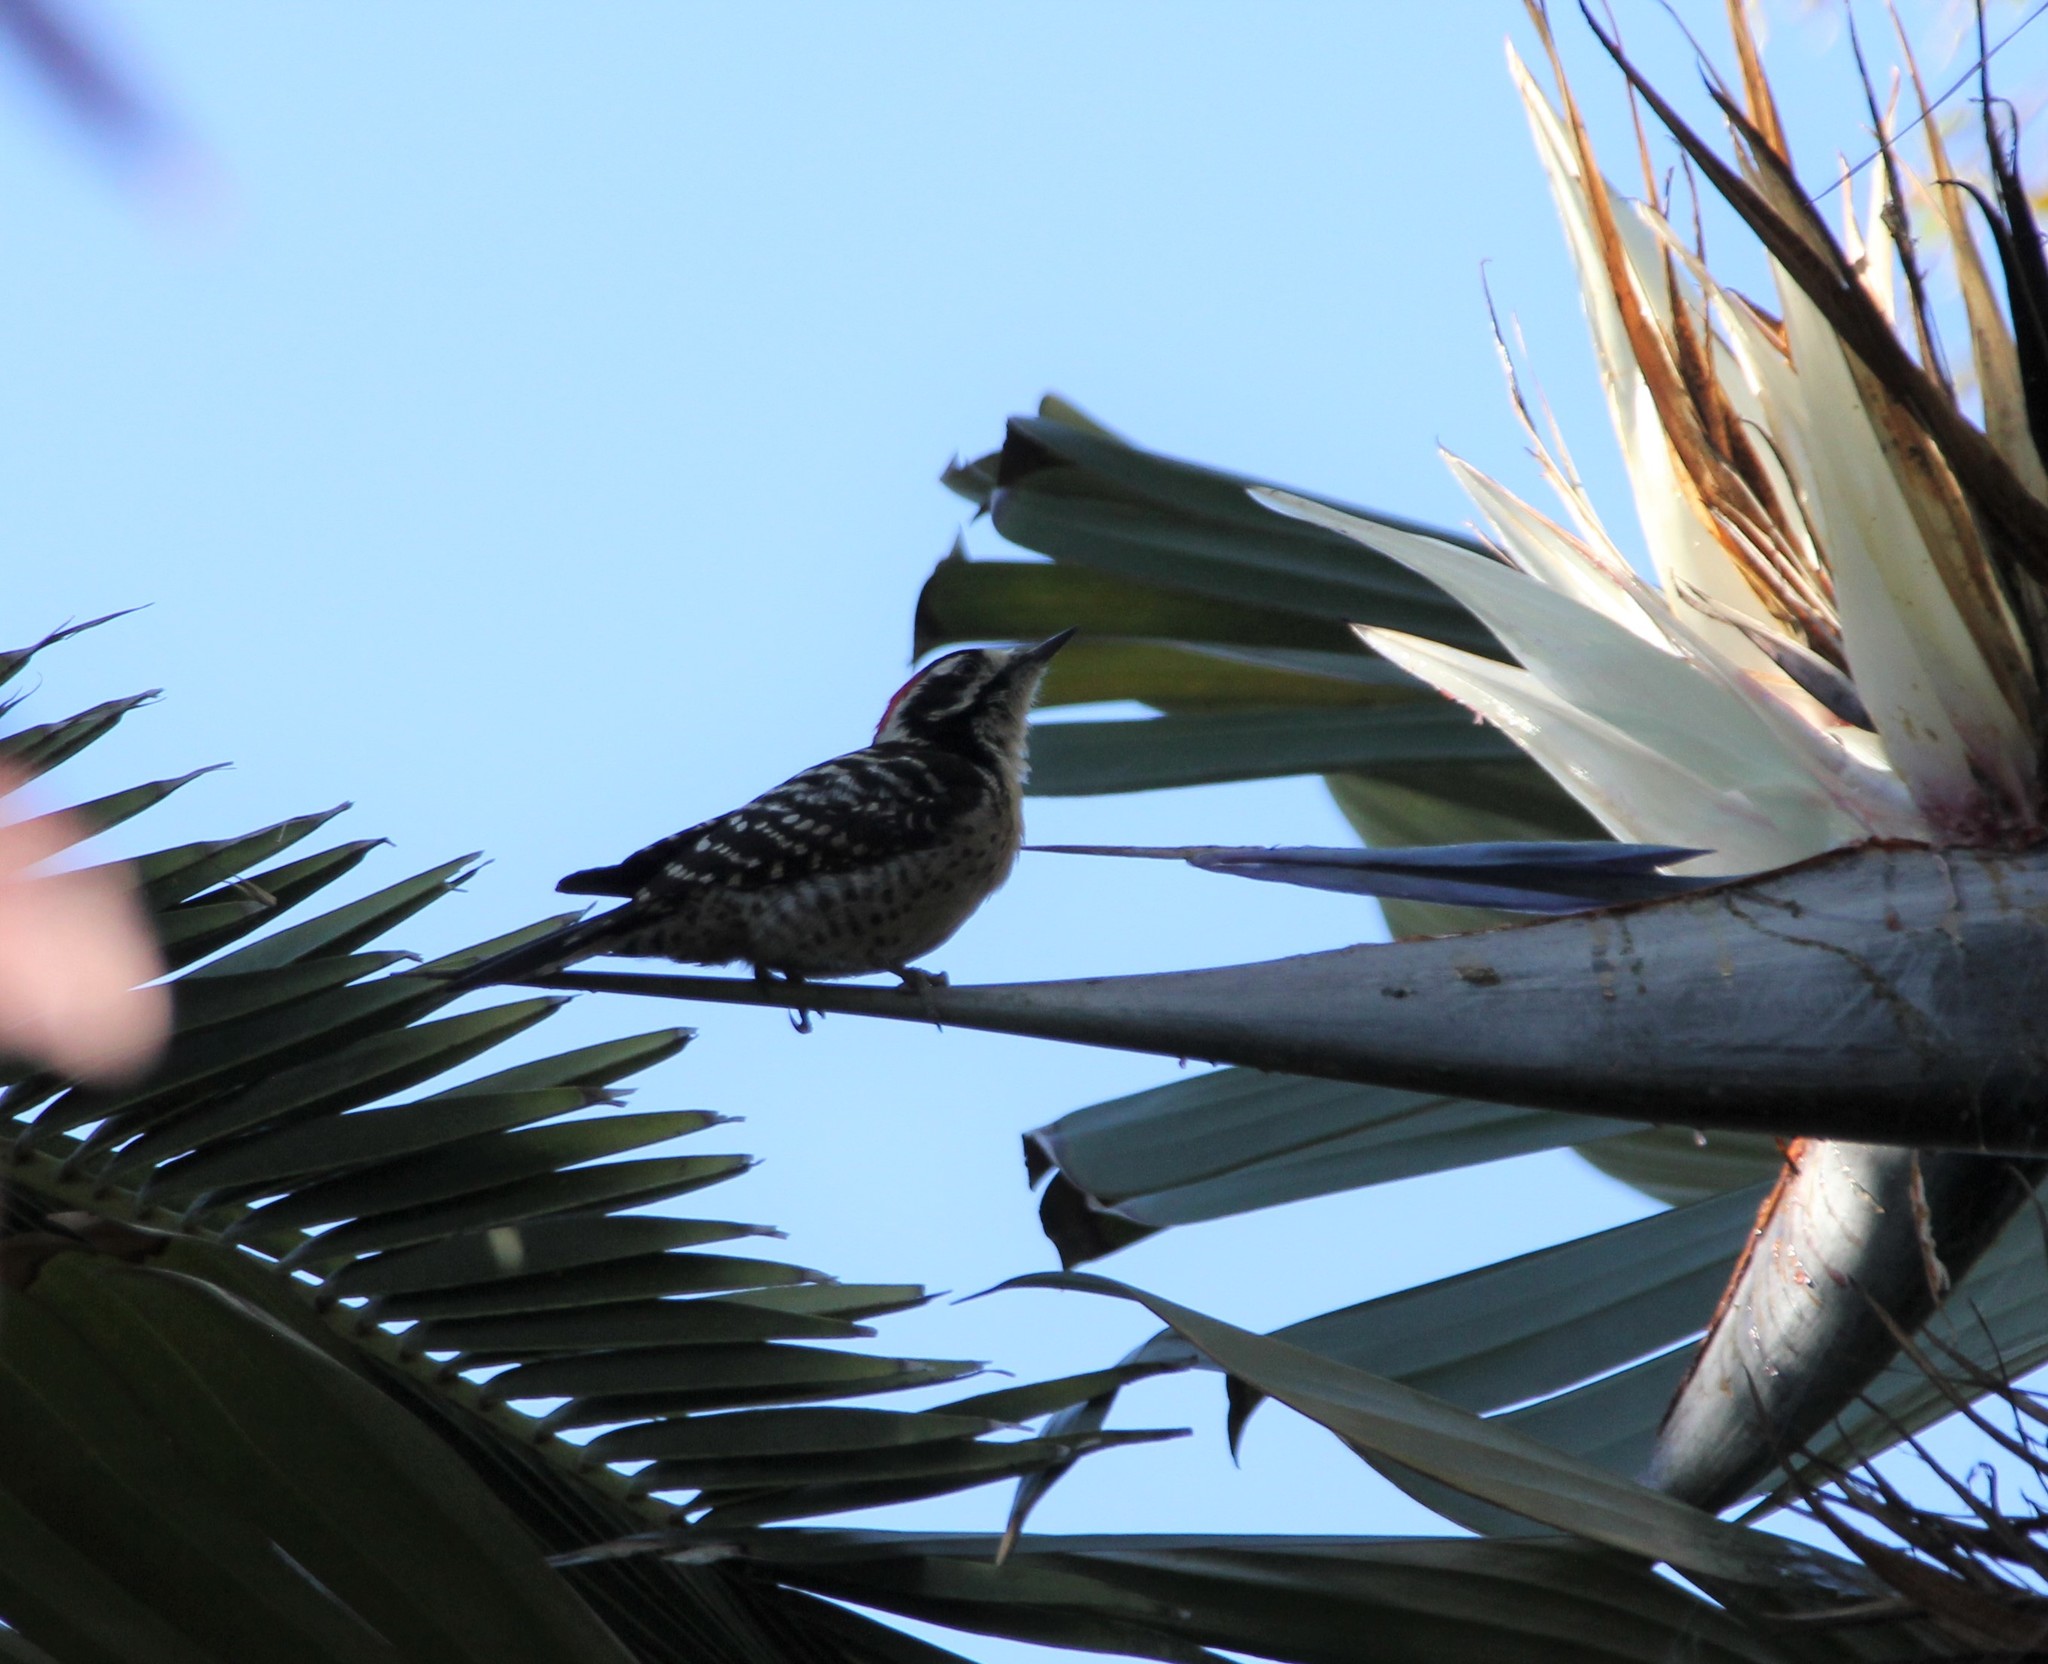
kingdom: Animalia
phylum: Chordata
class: Aves
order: Piciformes
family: Picidae
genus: Dryobates
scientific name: Dryobates nuttallii
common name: Nuttall's woodpecker
